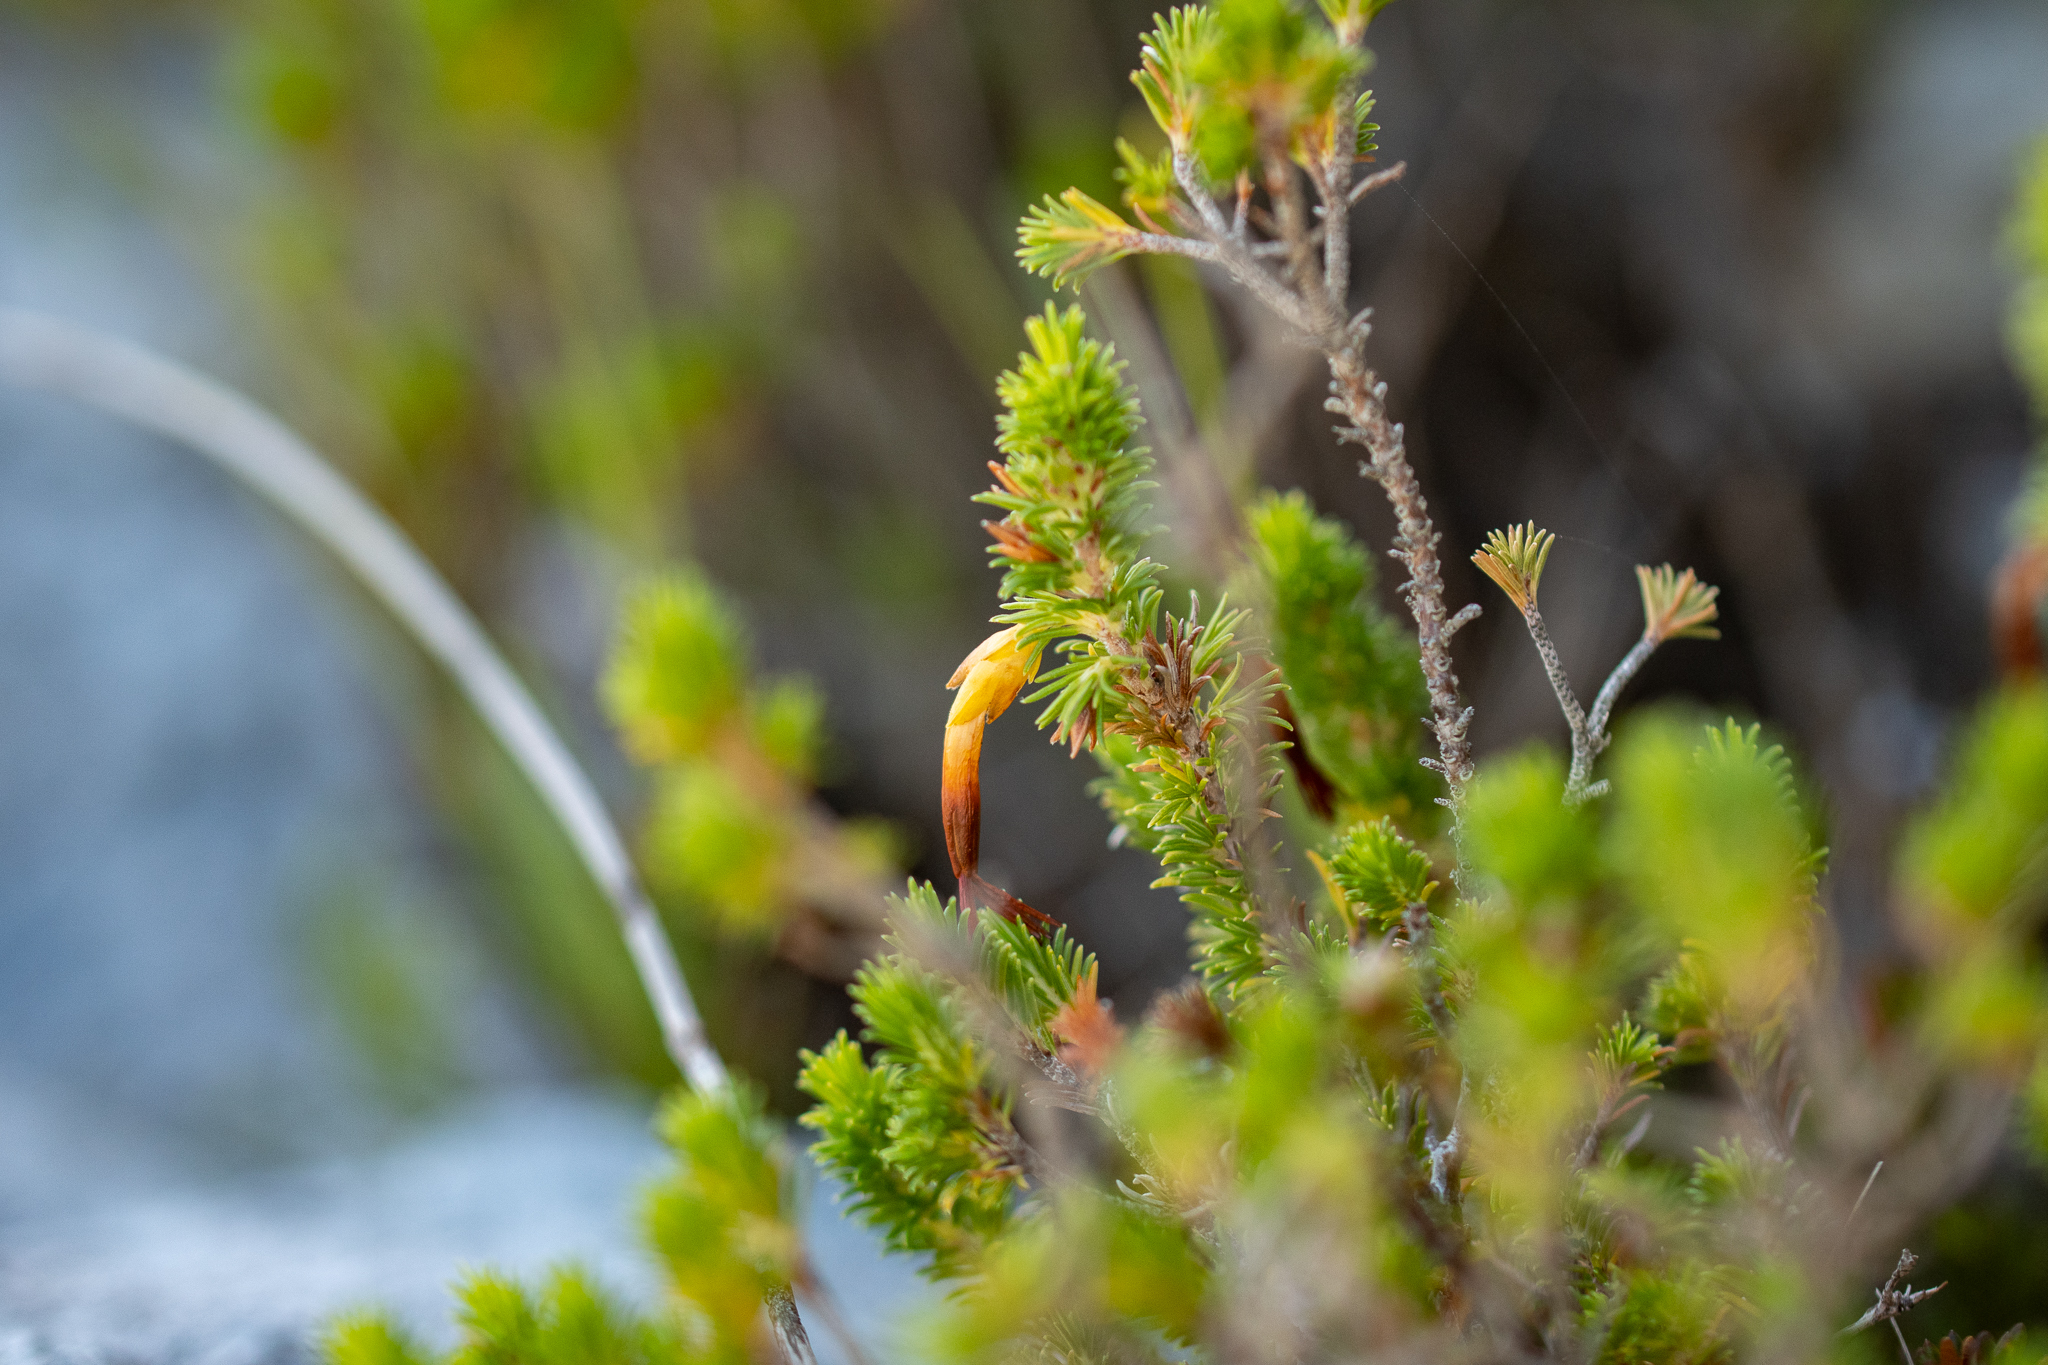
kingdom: Plantae
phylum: Tracheophyta
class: Magnoliopsida
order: Ericales
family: Ericaceae
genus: Erica
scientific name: Erica coccinea
